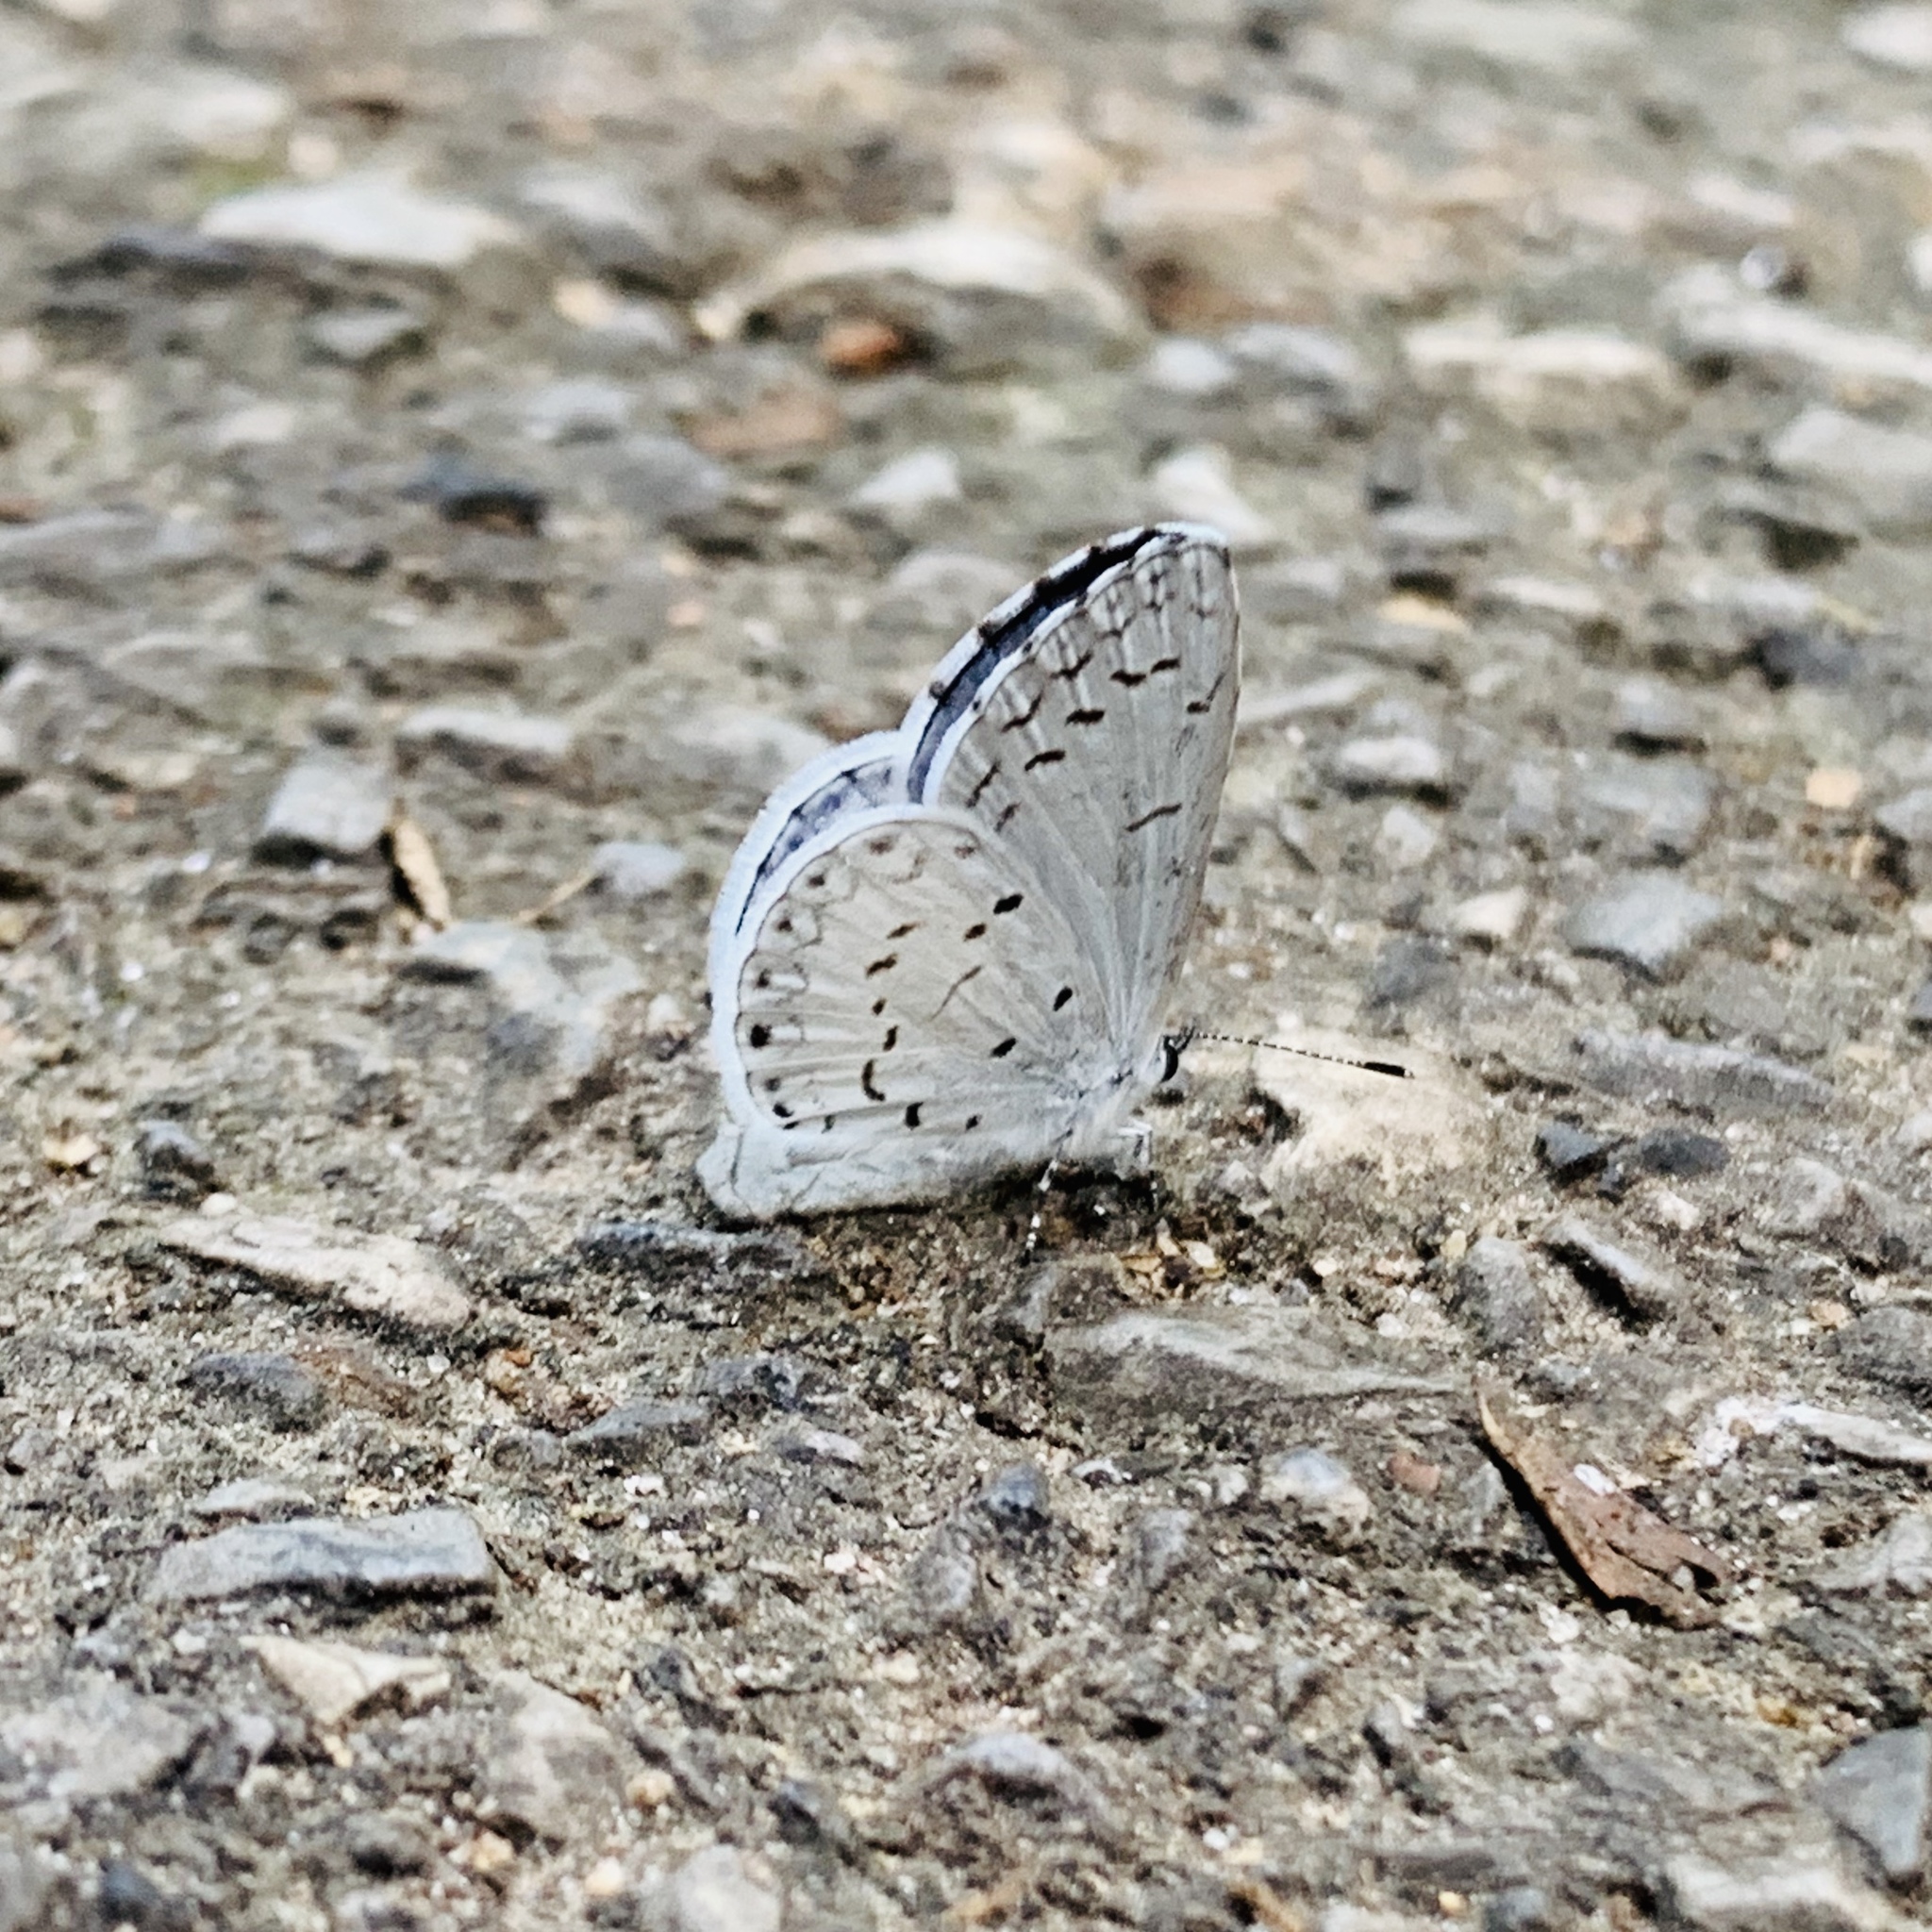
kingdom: Animalia
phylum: Arthropoda
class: Insecta
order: Lepidoptera
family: Lycaenidae
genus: Cyaniris
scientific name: Cyaniris neglecta
